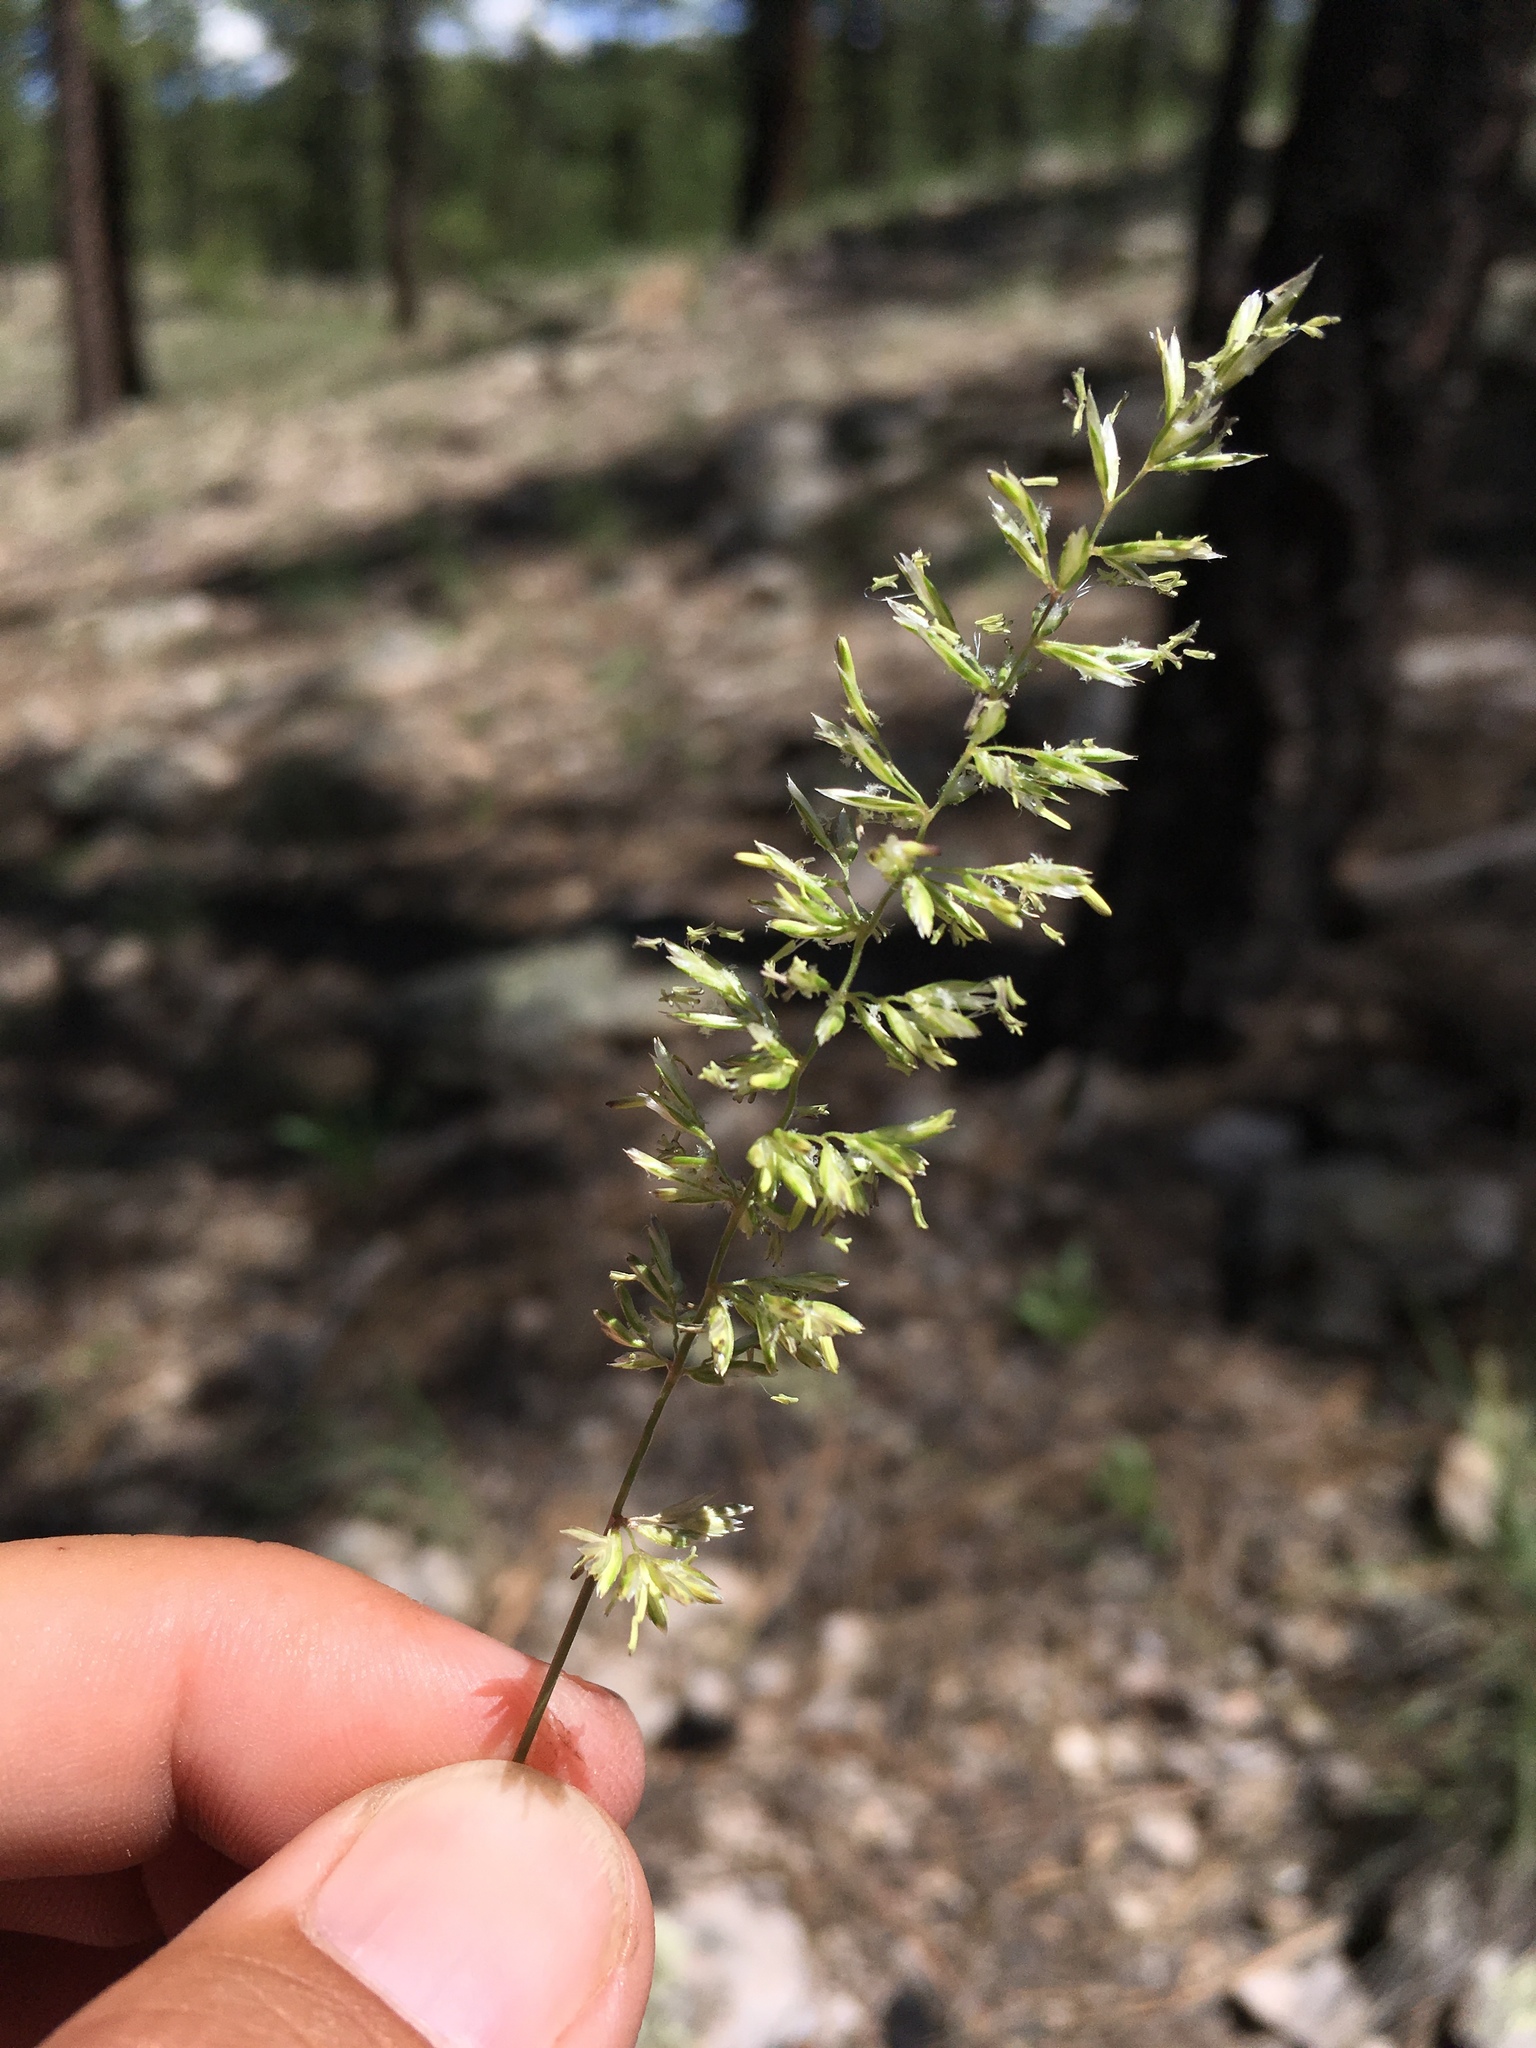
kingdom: Plantae
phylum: Tracheophyta
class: Liliopsida
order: Poales
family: Poaceae
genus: Koeleria
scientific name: Koeleria macrantha
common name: Crested hair-grass
